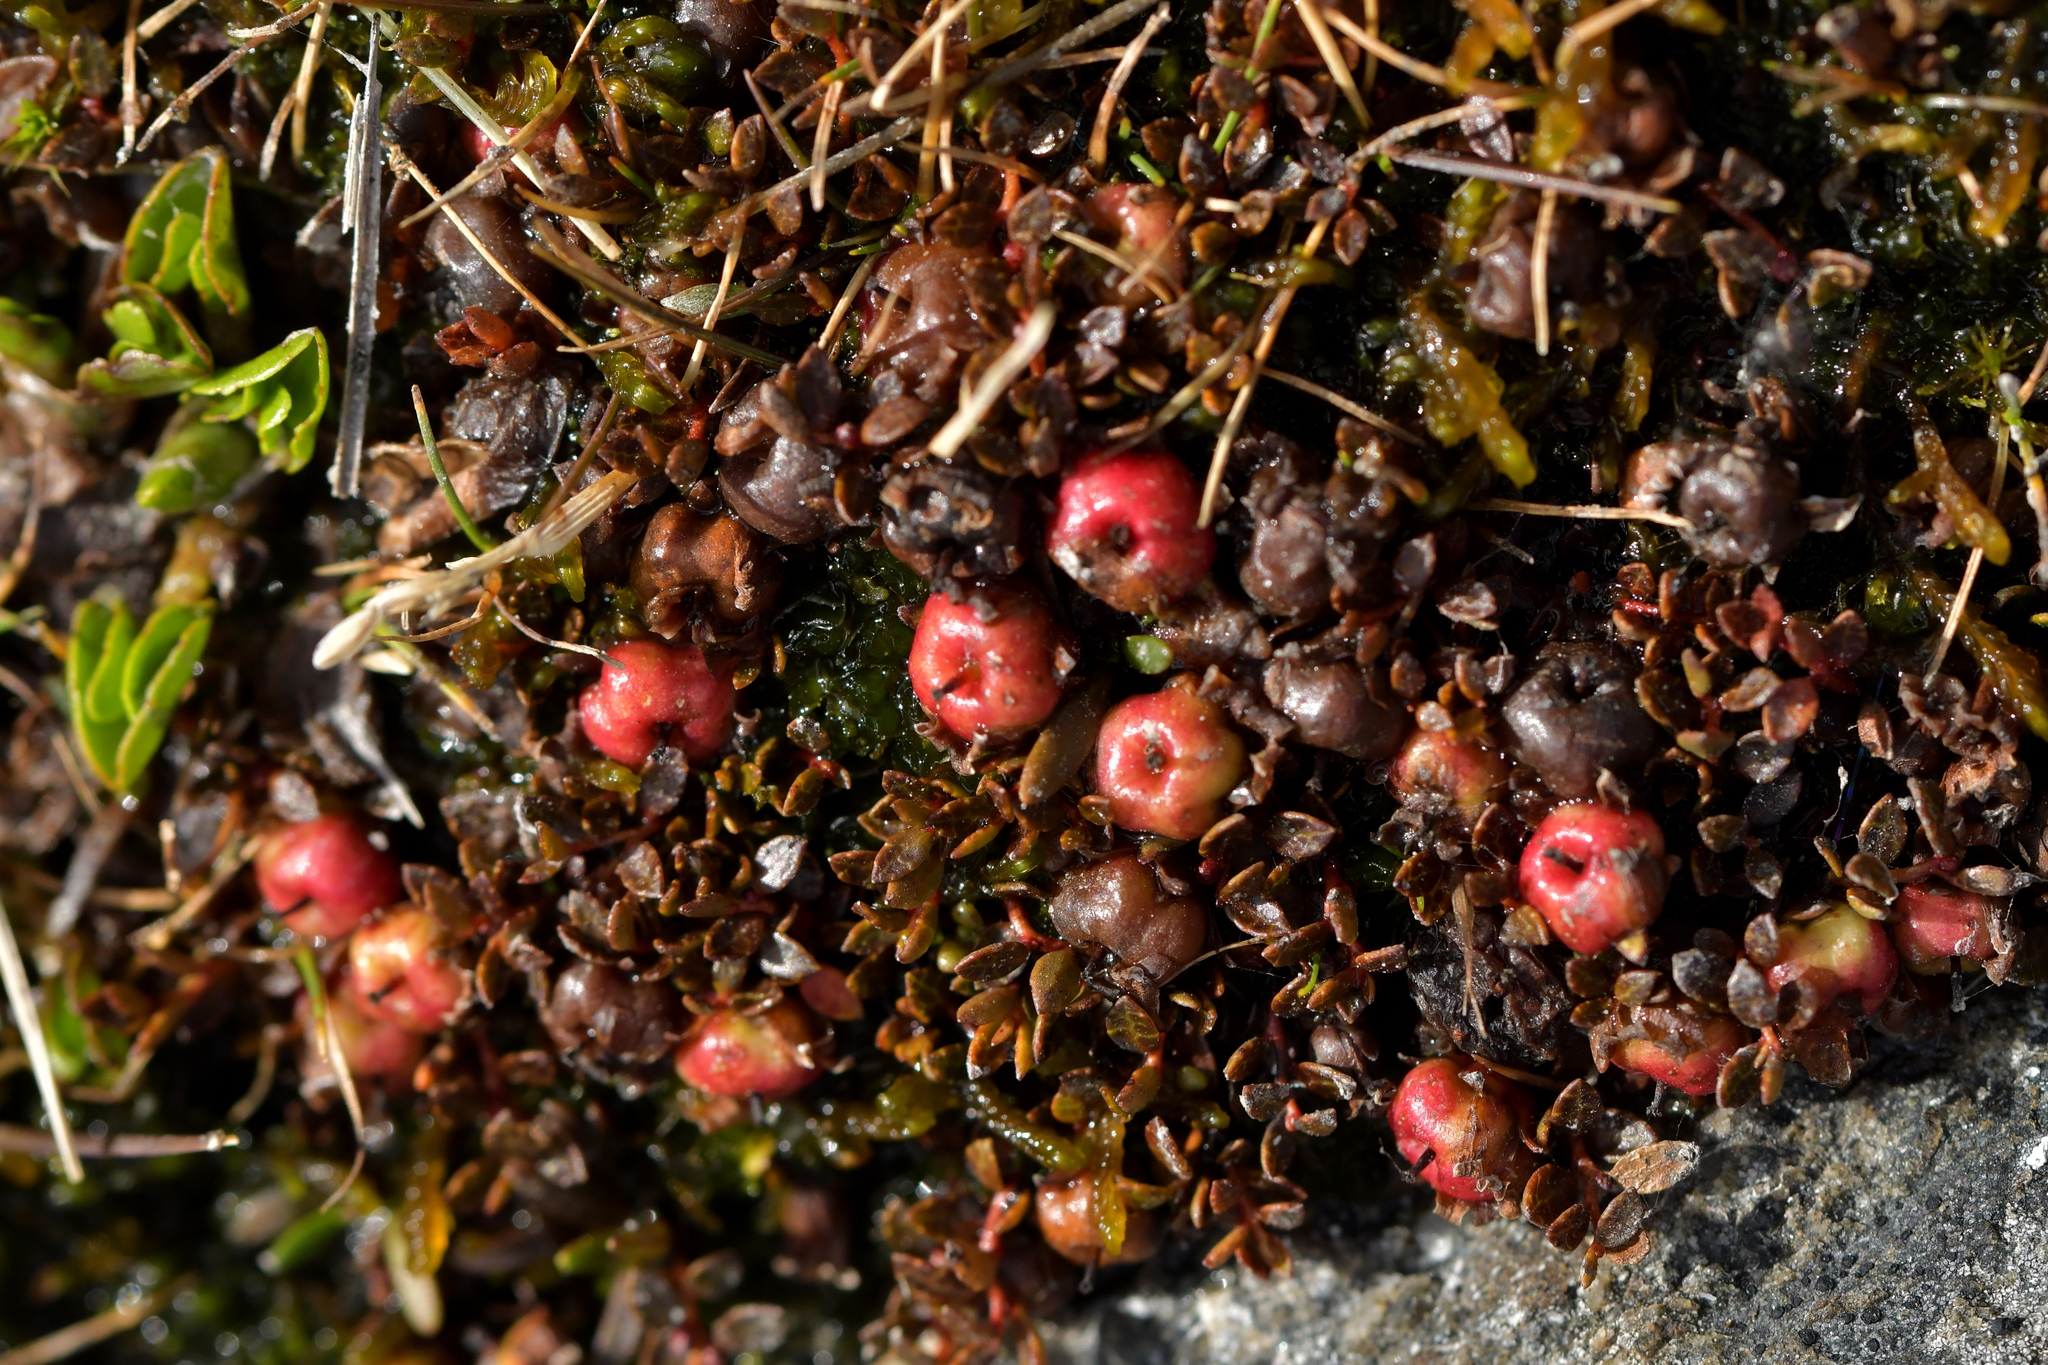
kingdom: Plantae
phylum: Tracheophyta
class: Magnoliopsida
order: Ericales
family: Ericaceae
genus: Gaultheria
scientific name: Gaultheria parvula
